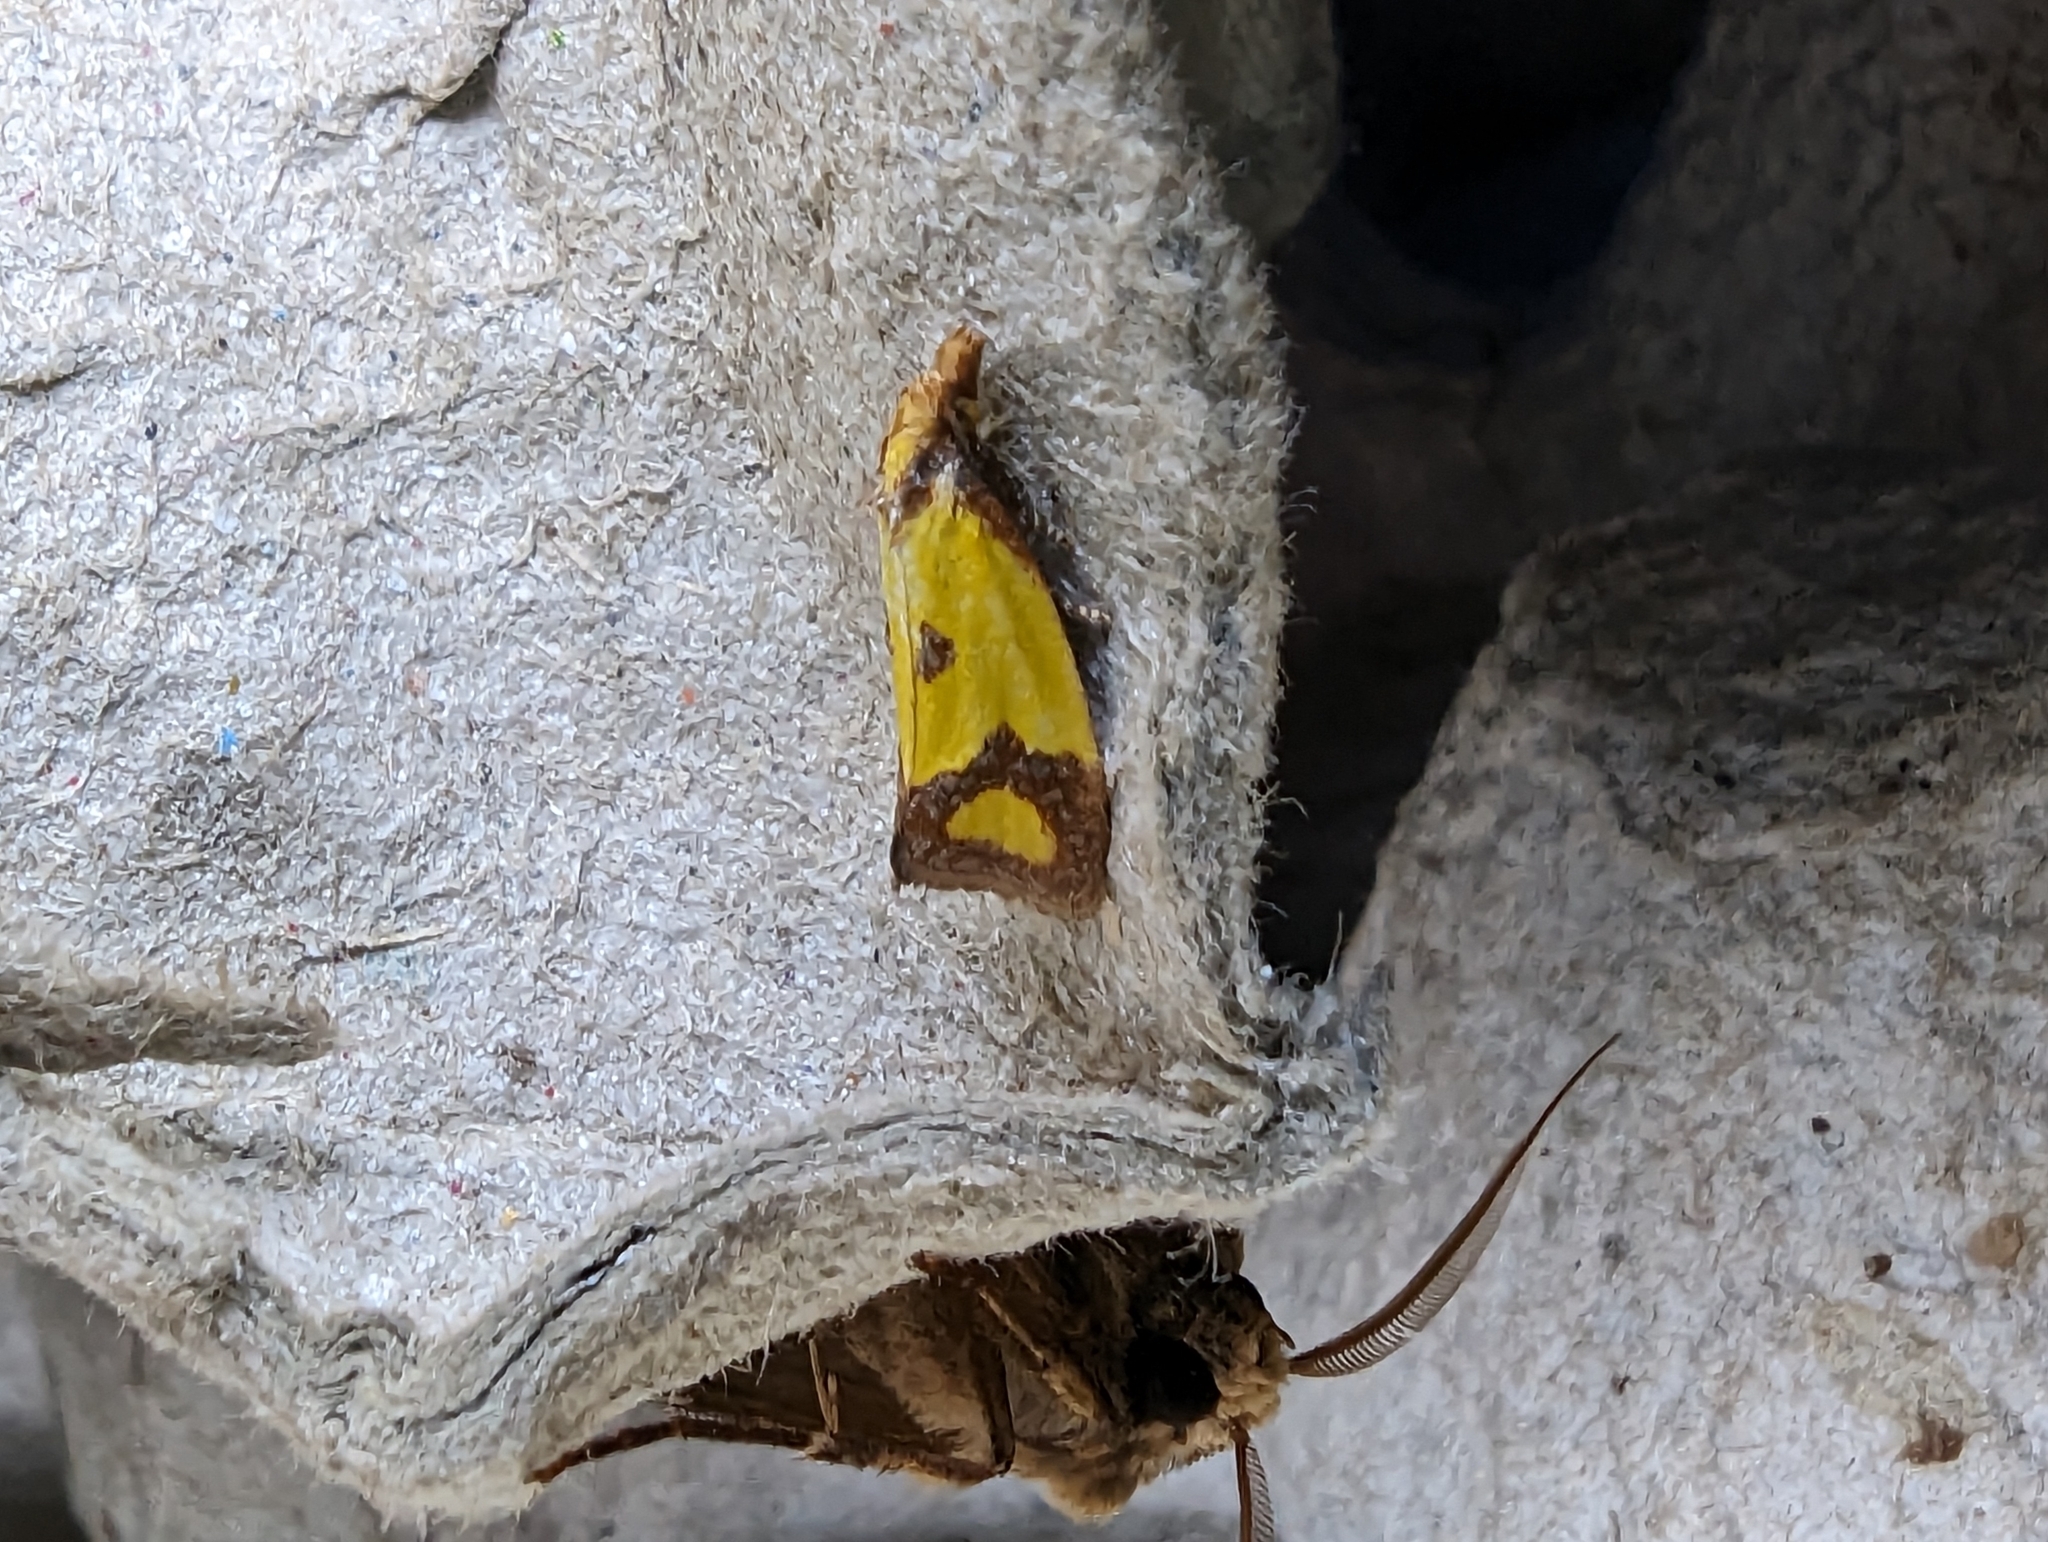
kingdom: Animalia
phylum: Arthropoda
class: Insecta
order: Lepidoptera
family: Tortricidae
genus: Agapeta
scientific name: Agapeta zoegana
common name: Sulfur knapweed root moth
